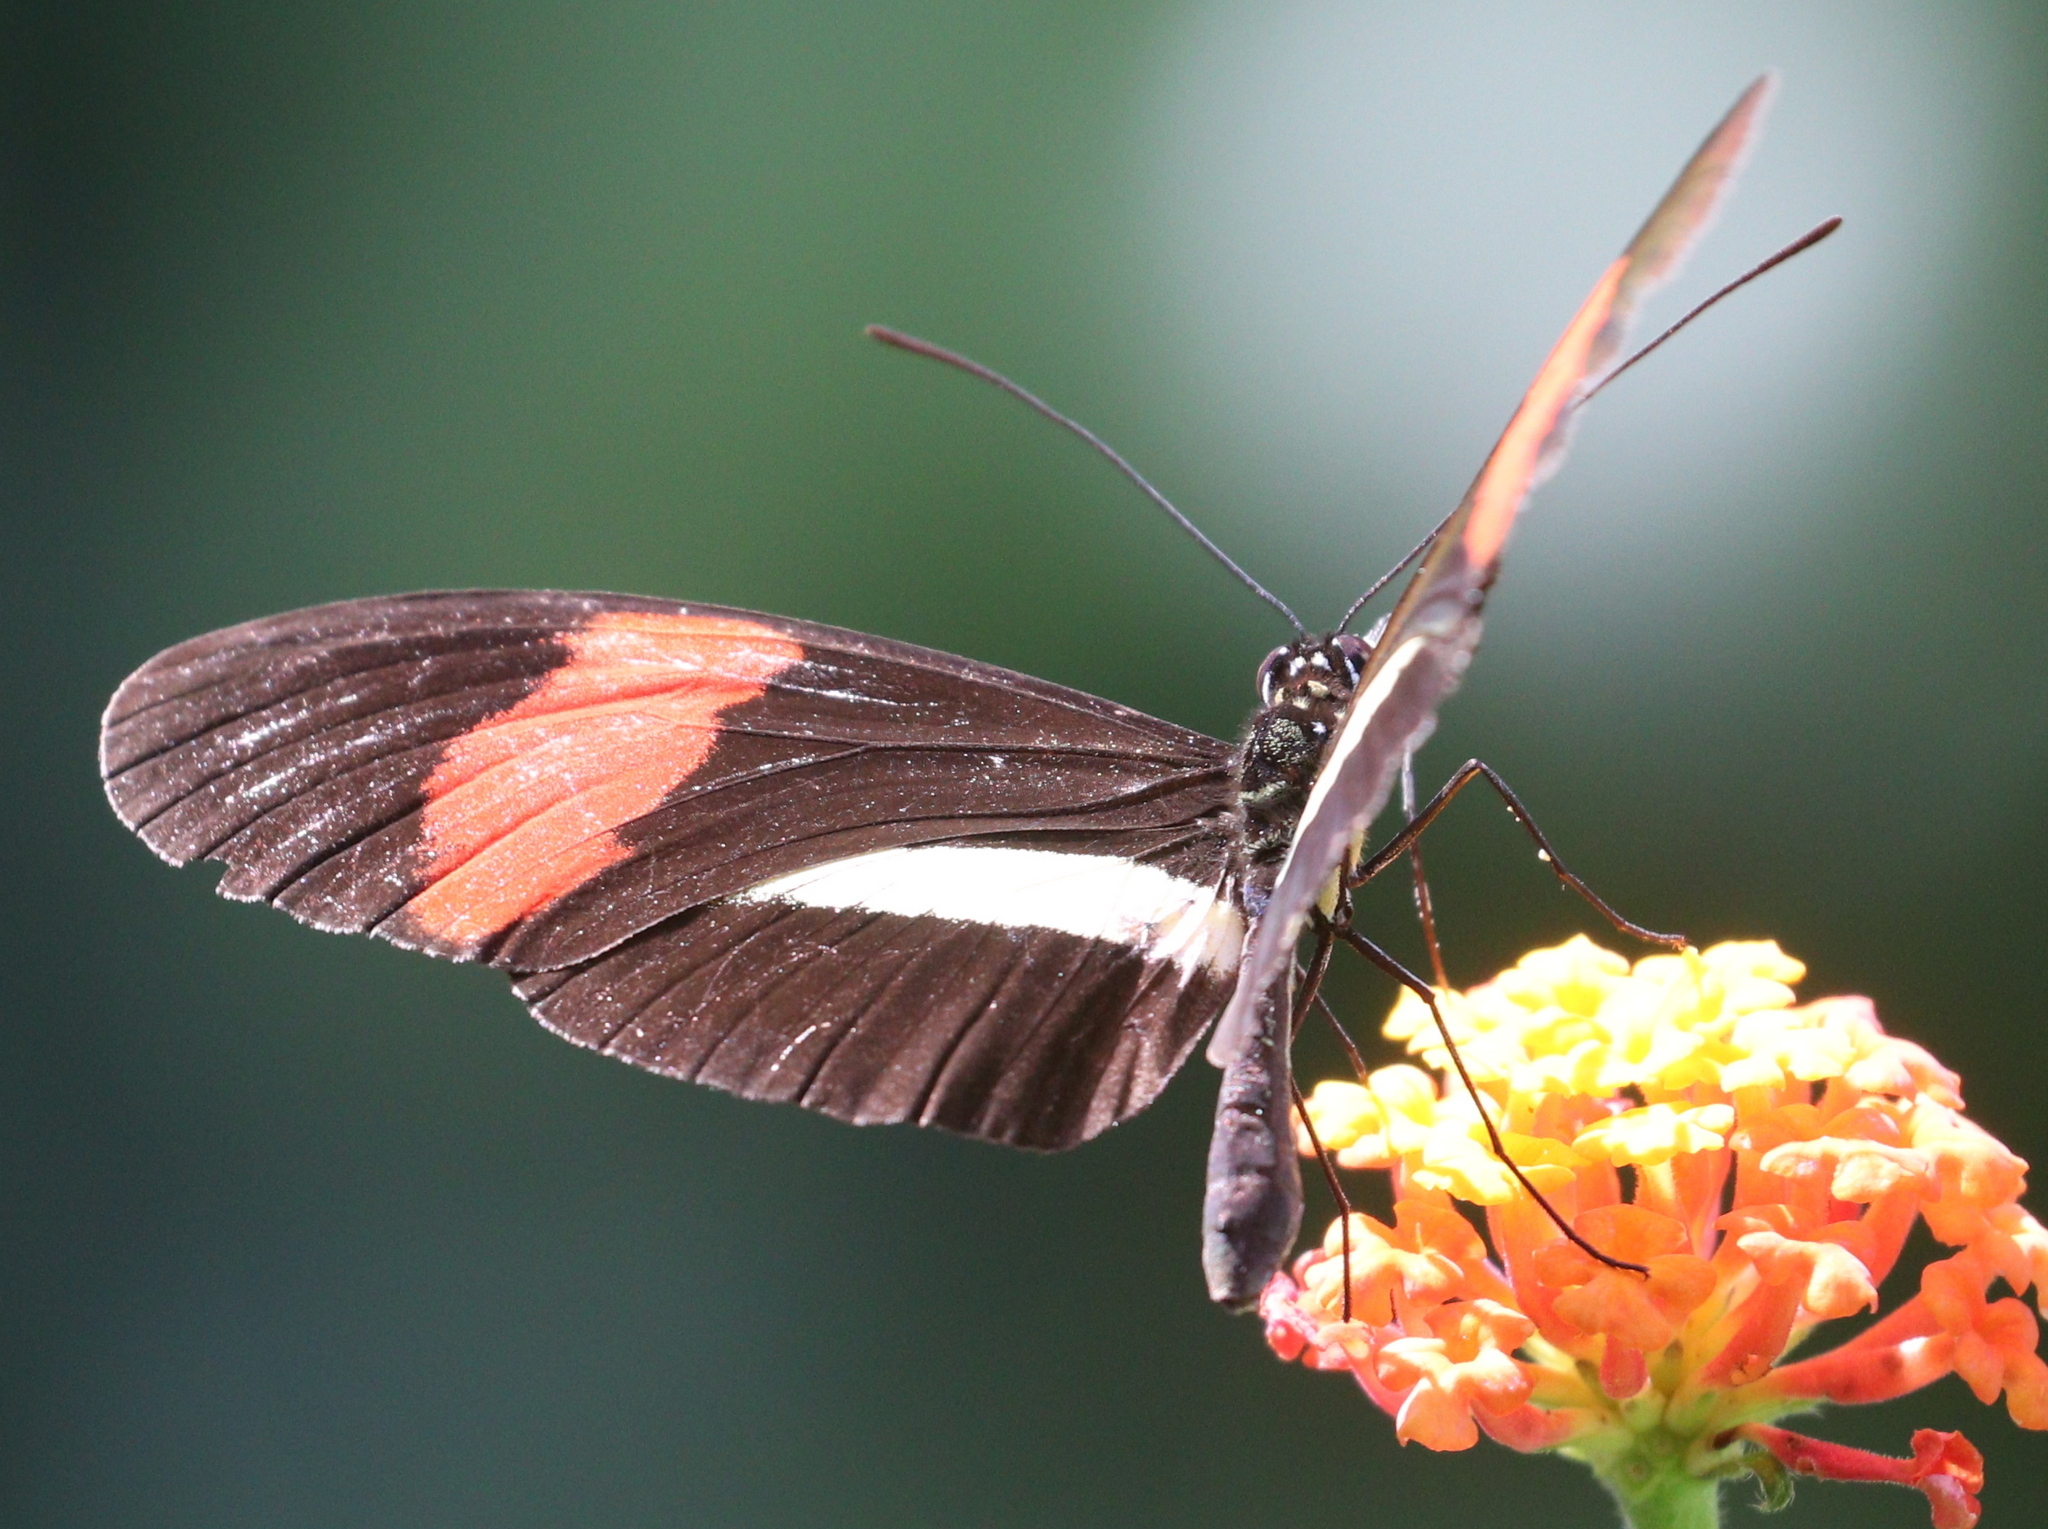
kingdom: Animalia
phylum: Arthropoda
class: Insecta
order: Lepidoptera
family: Nymphalidae
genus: Heliconius
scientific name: Heliconius melpomene
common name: Postman
